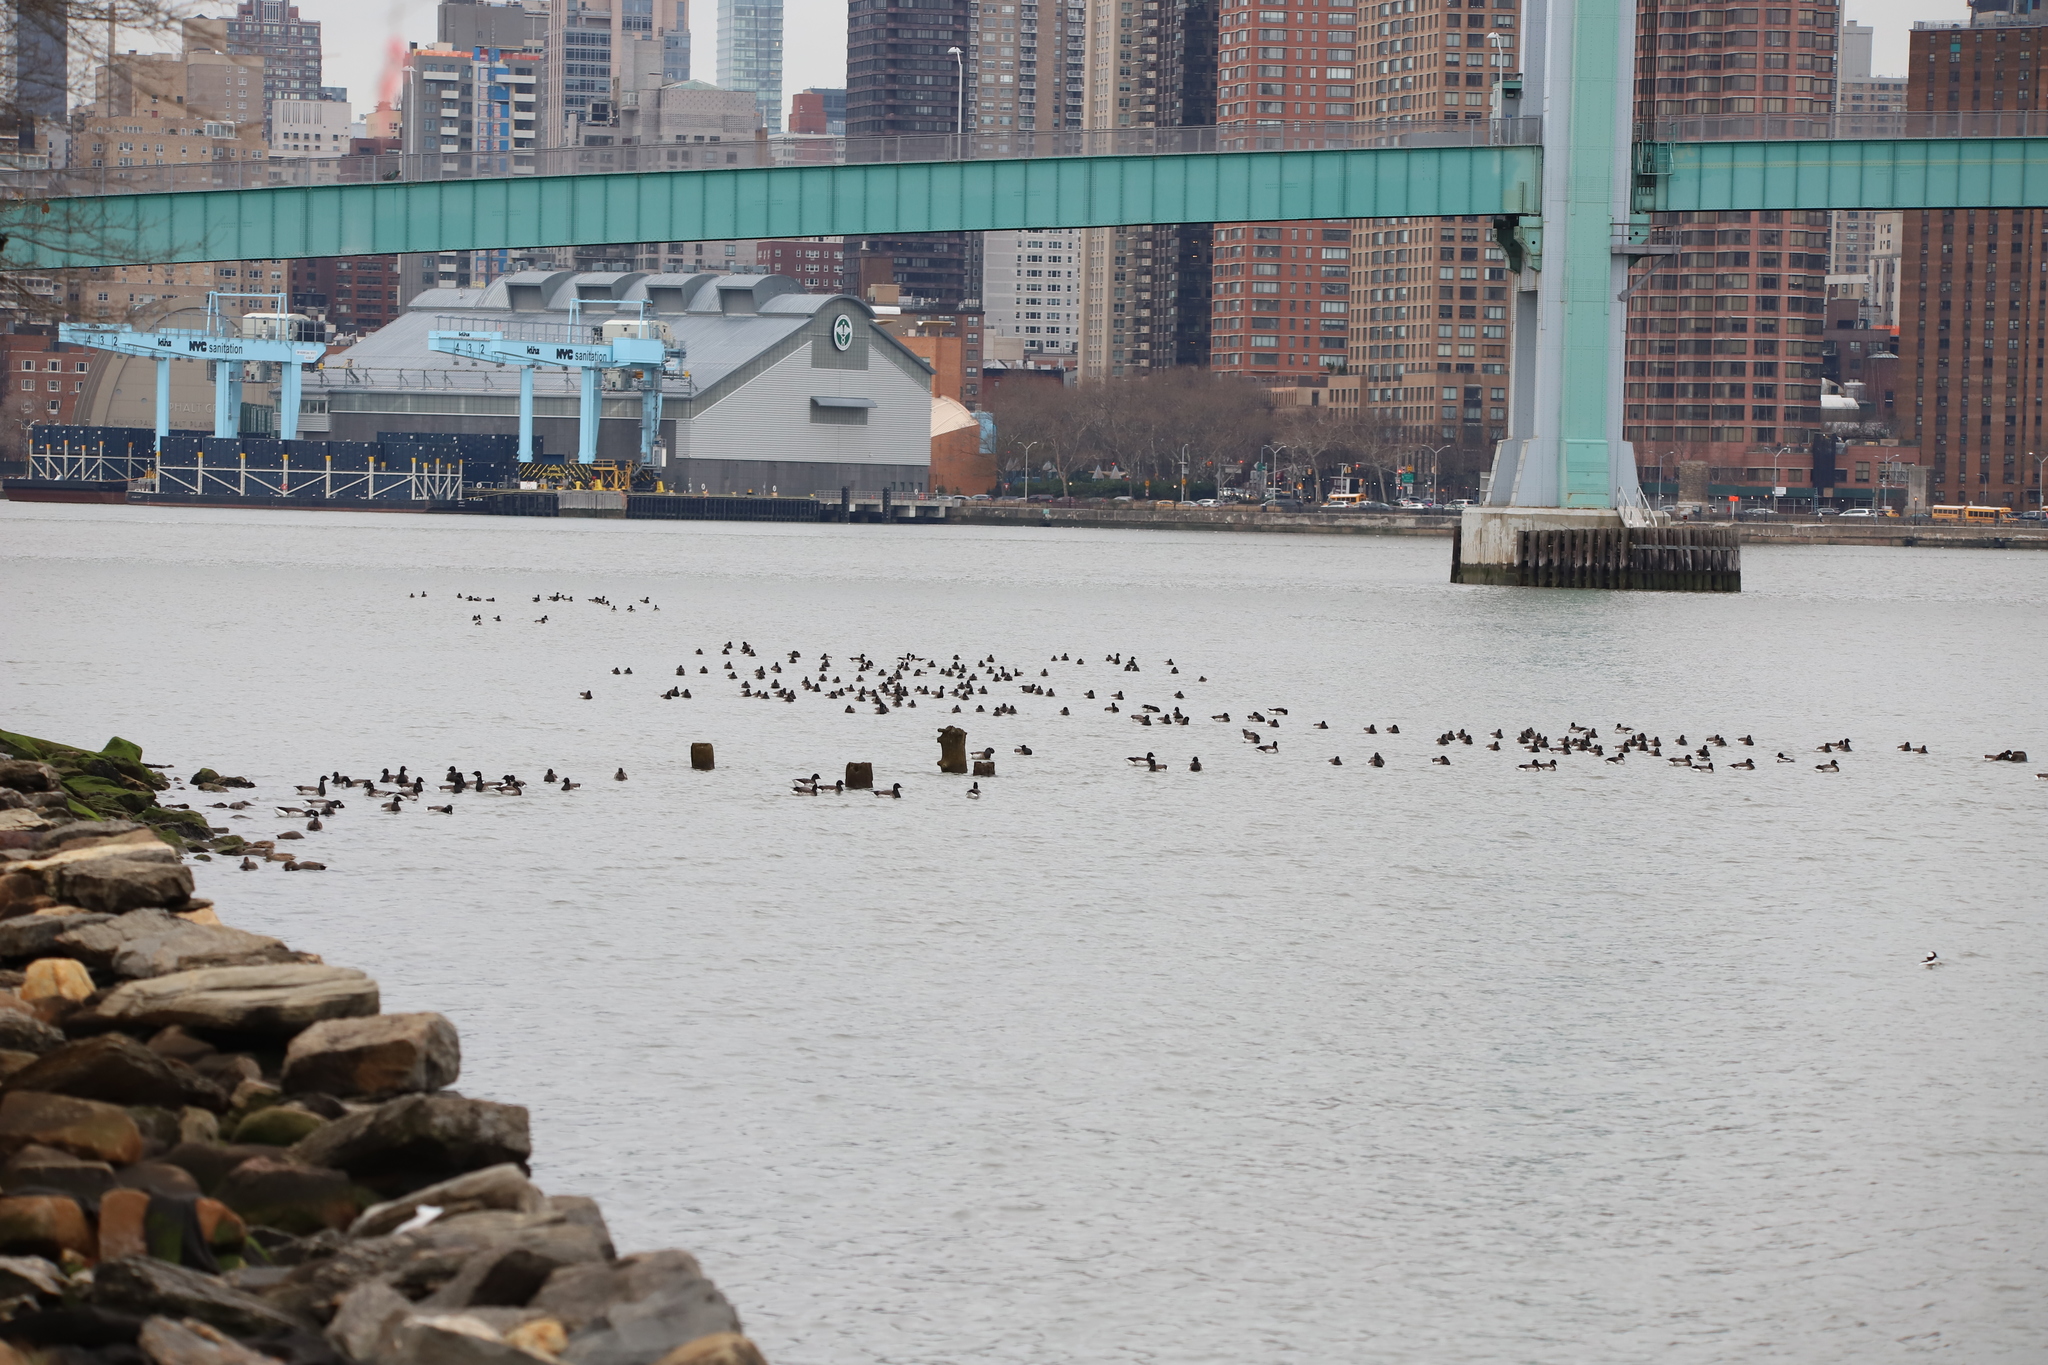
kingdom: Animalia
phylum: Chordata
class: Aves
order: Anseriformes
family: Anatidae
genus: Branta
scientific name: Branta bernicla
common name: Brant goose
